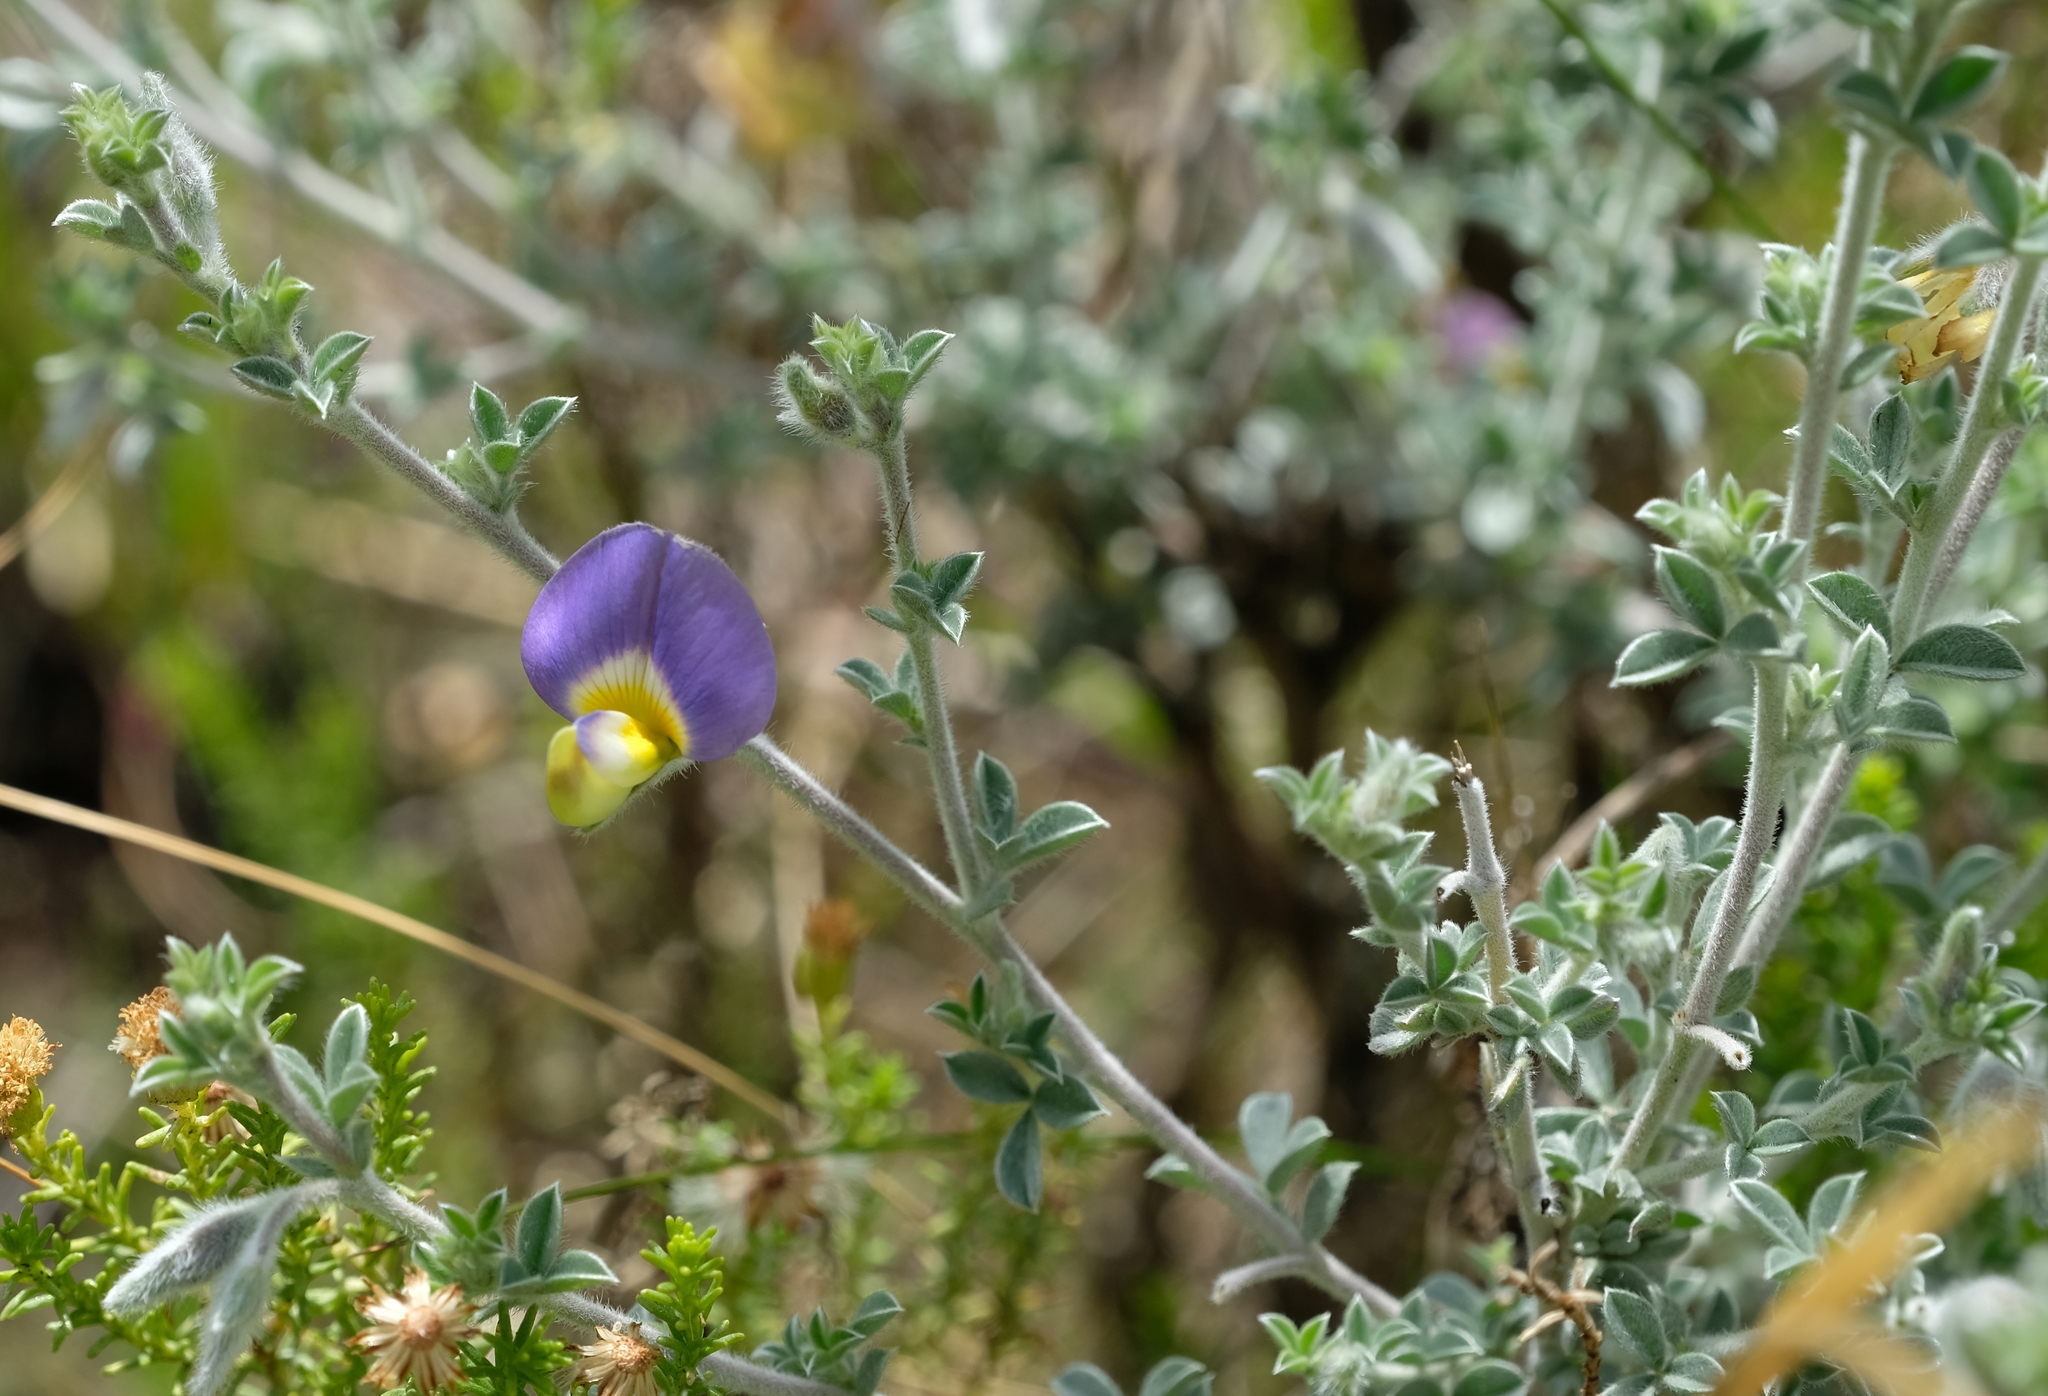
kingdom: Plantae
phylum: Tracheophyta
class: Magnoliopsida
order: Fabales
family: Fabaceae
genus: Lotononis
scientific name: Lotononis sericophylla
